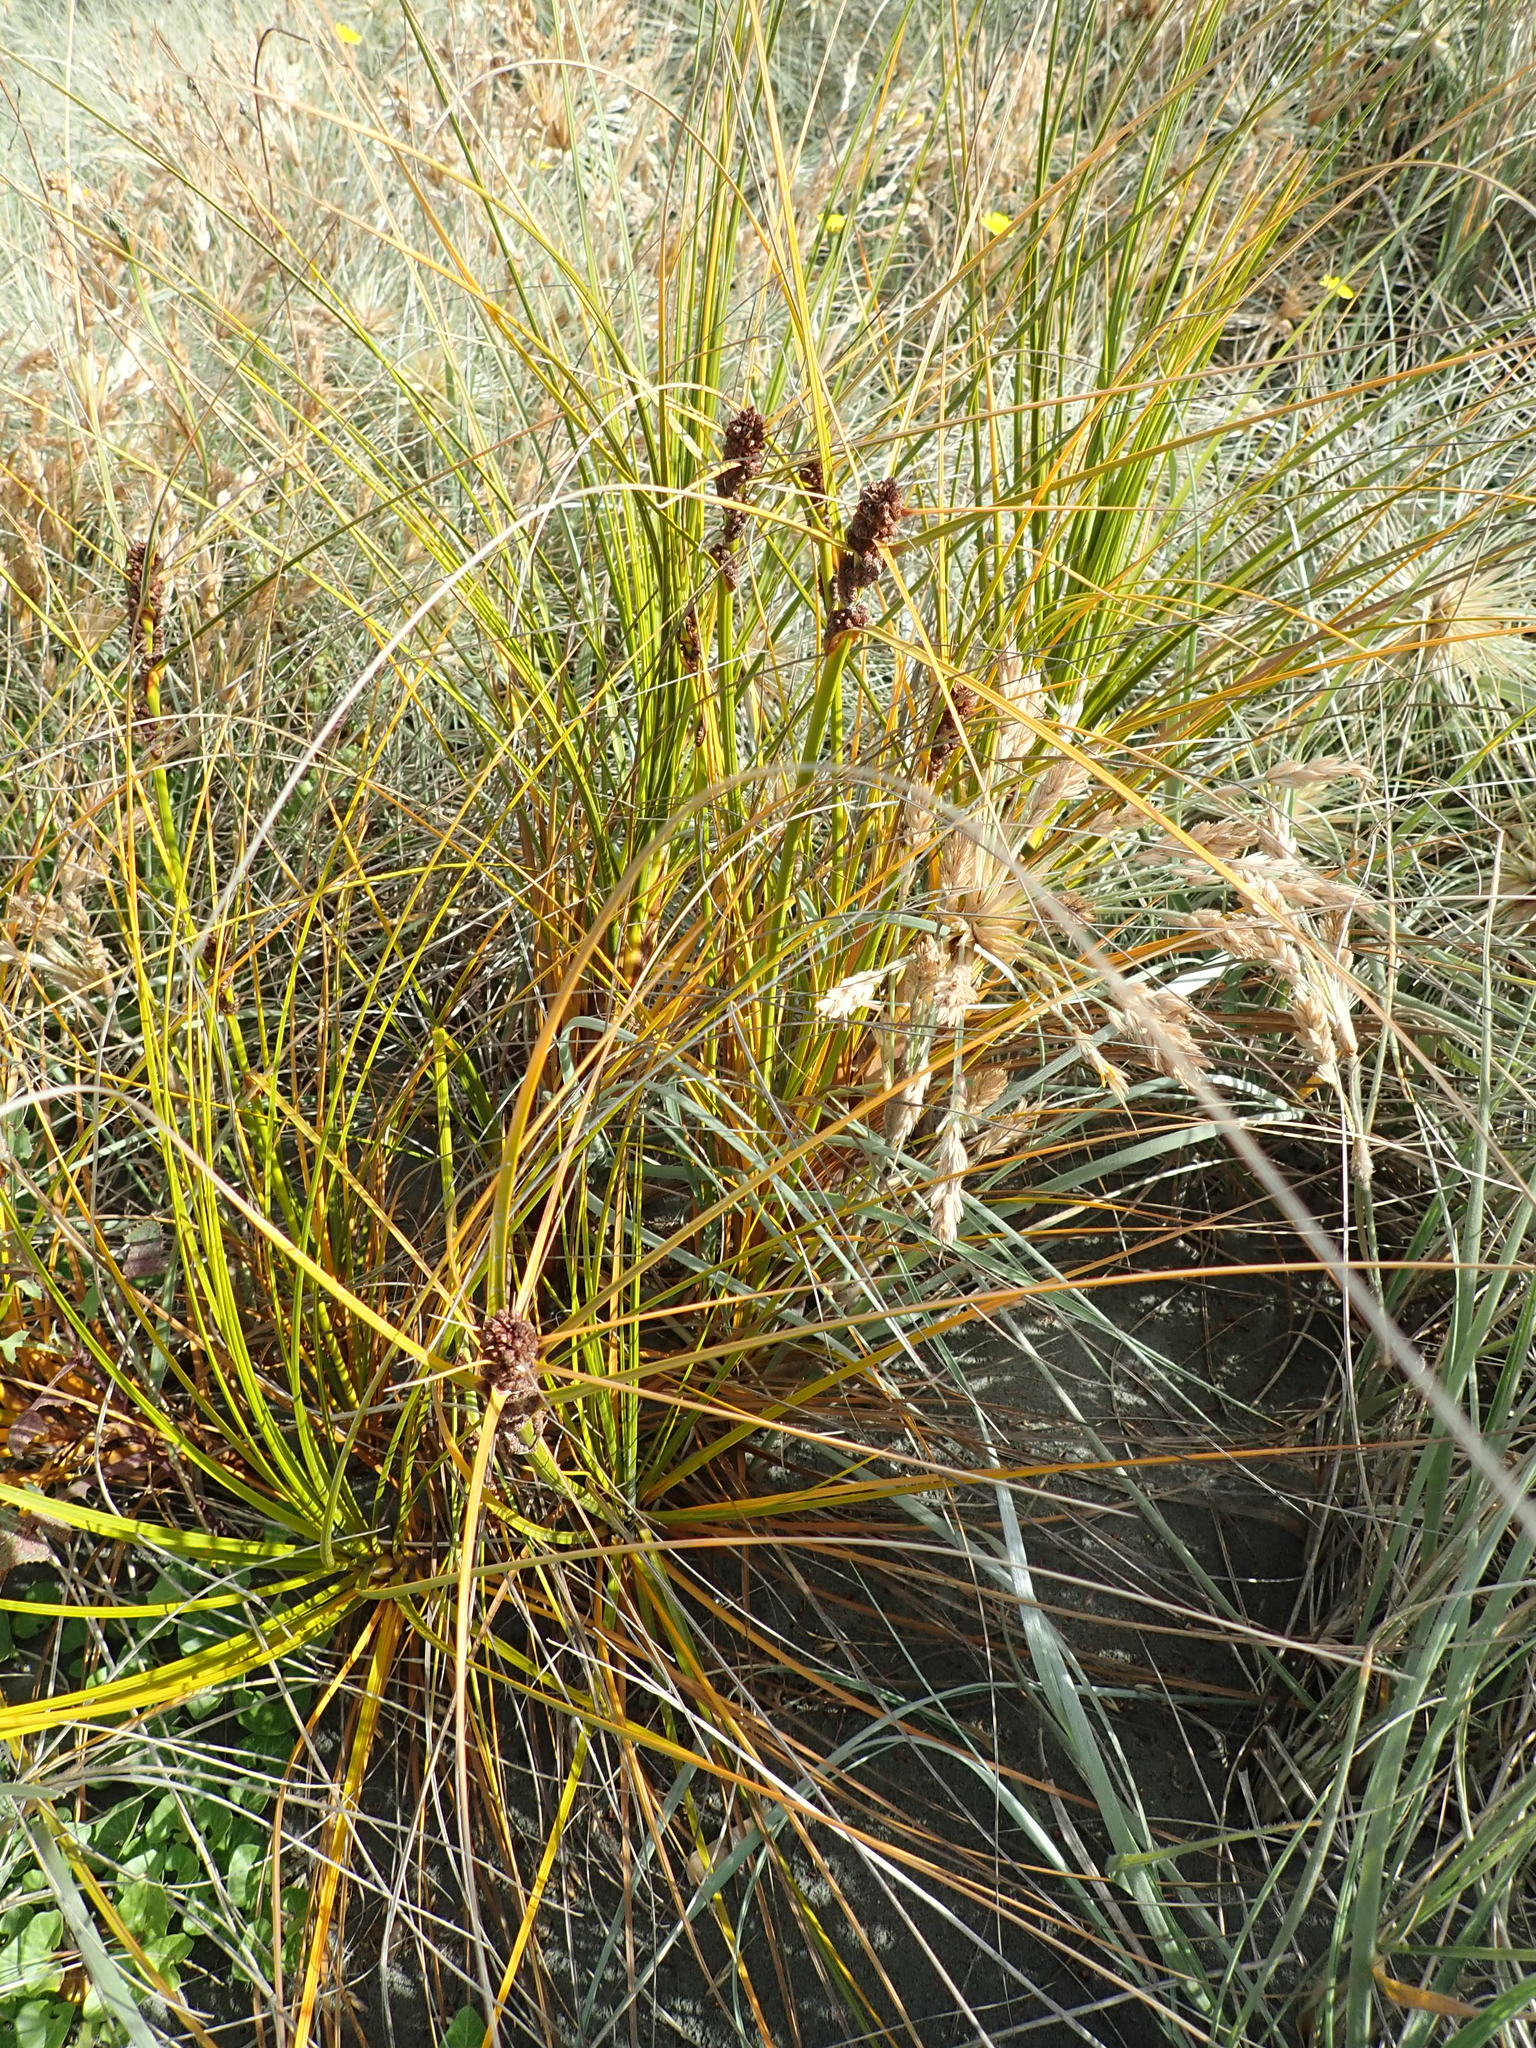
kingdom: Plantae
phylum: Tracheophyta
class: Liliopsida
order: Poales
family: Cyperaceae
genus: Ficinia
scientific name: Ficinia spiralis
